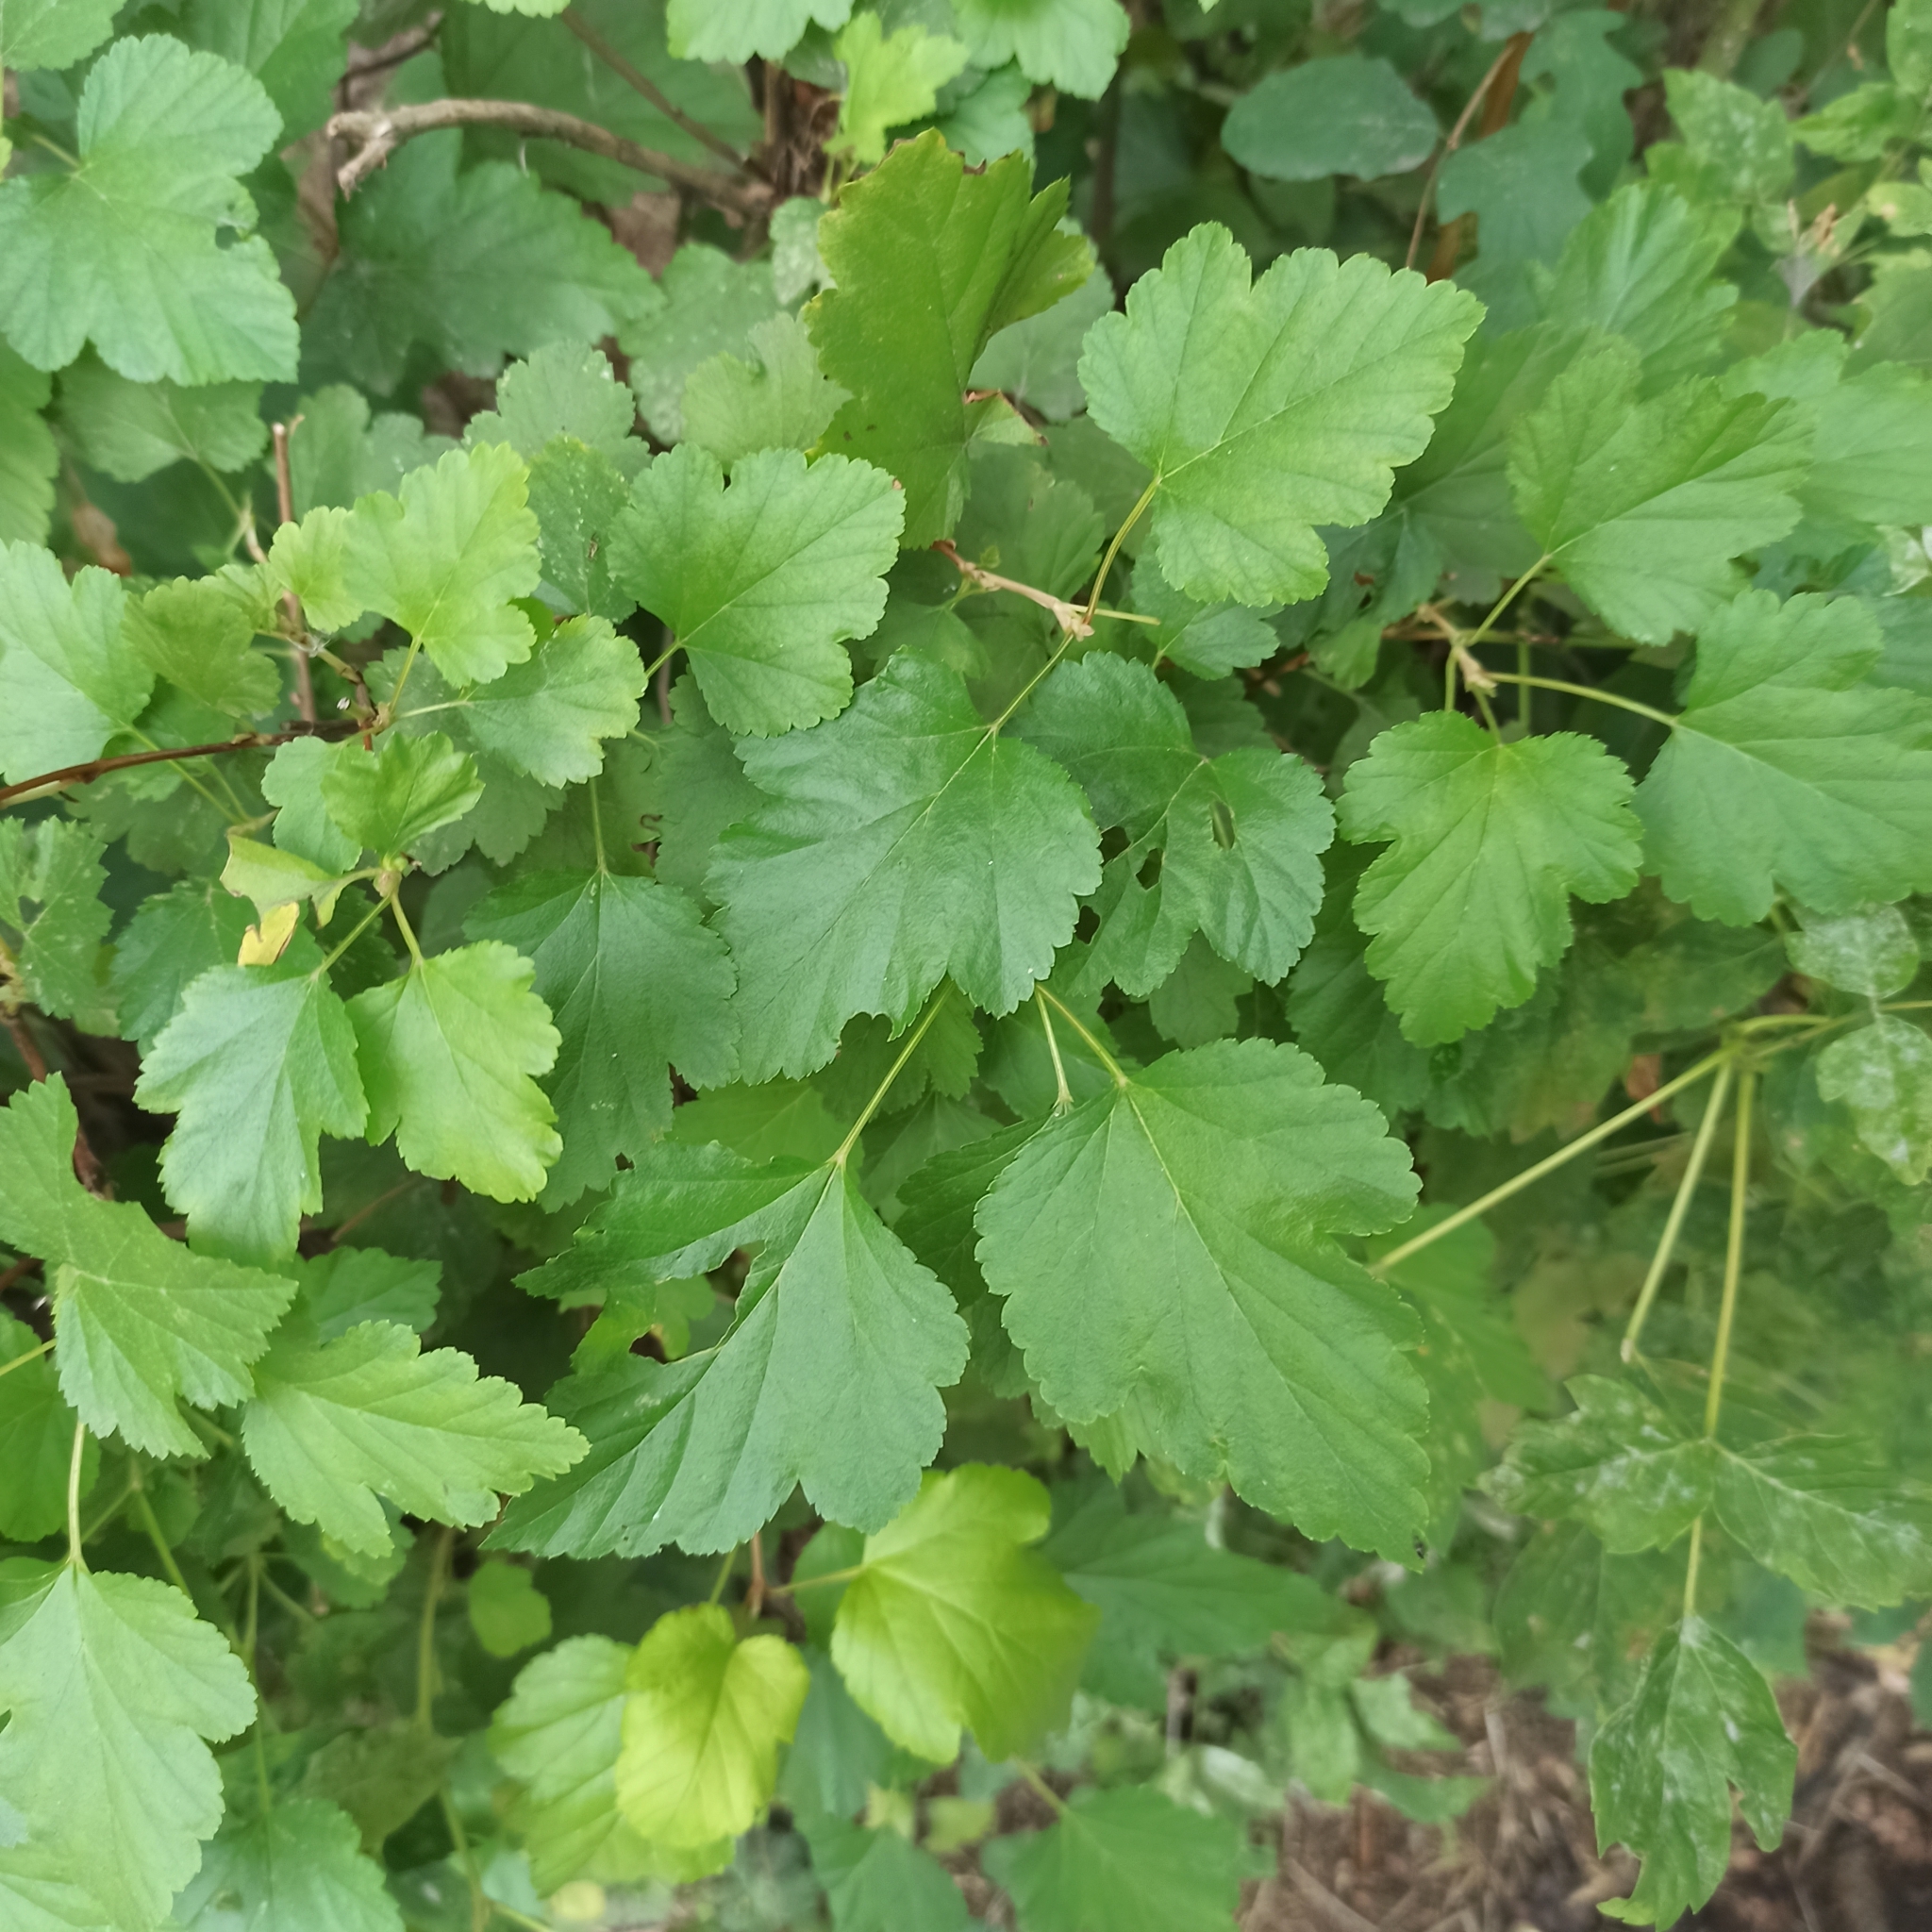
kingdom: Plantae
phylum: Tracheophyta
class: Magnoliopsida
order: Rosales
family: Rosaceae
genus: Physocarpus
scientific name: Physocarpus opulifolius
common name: Ninebark
